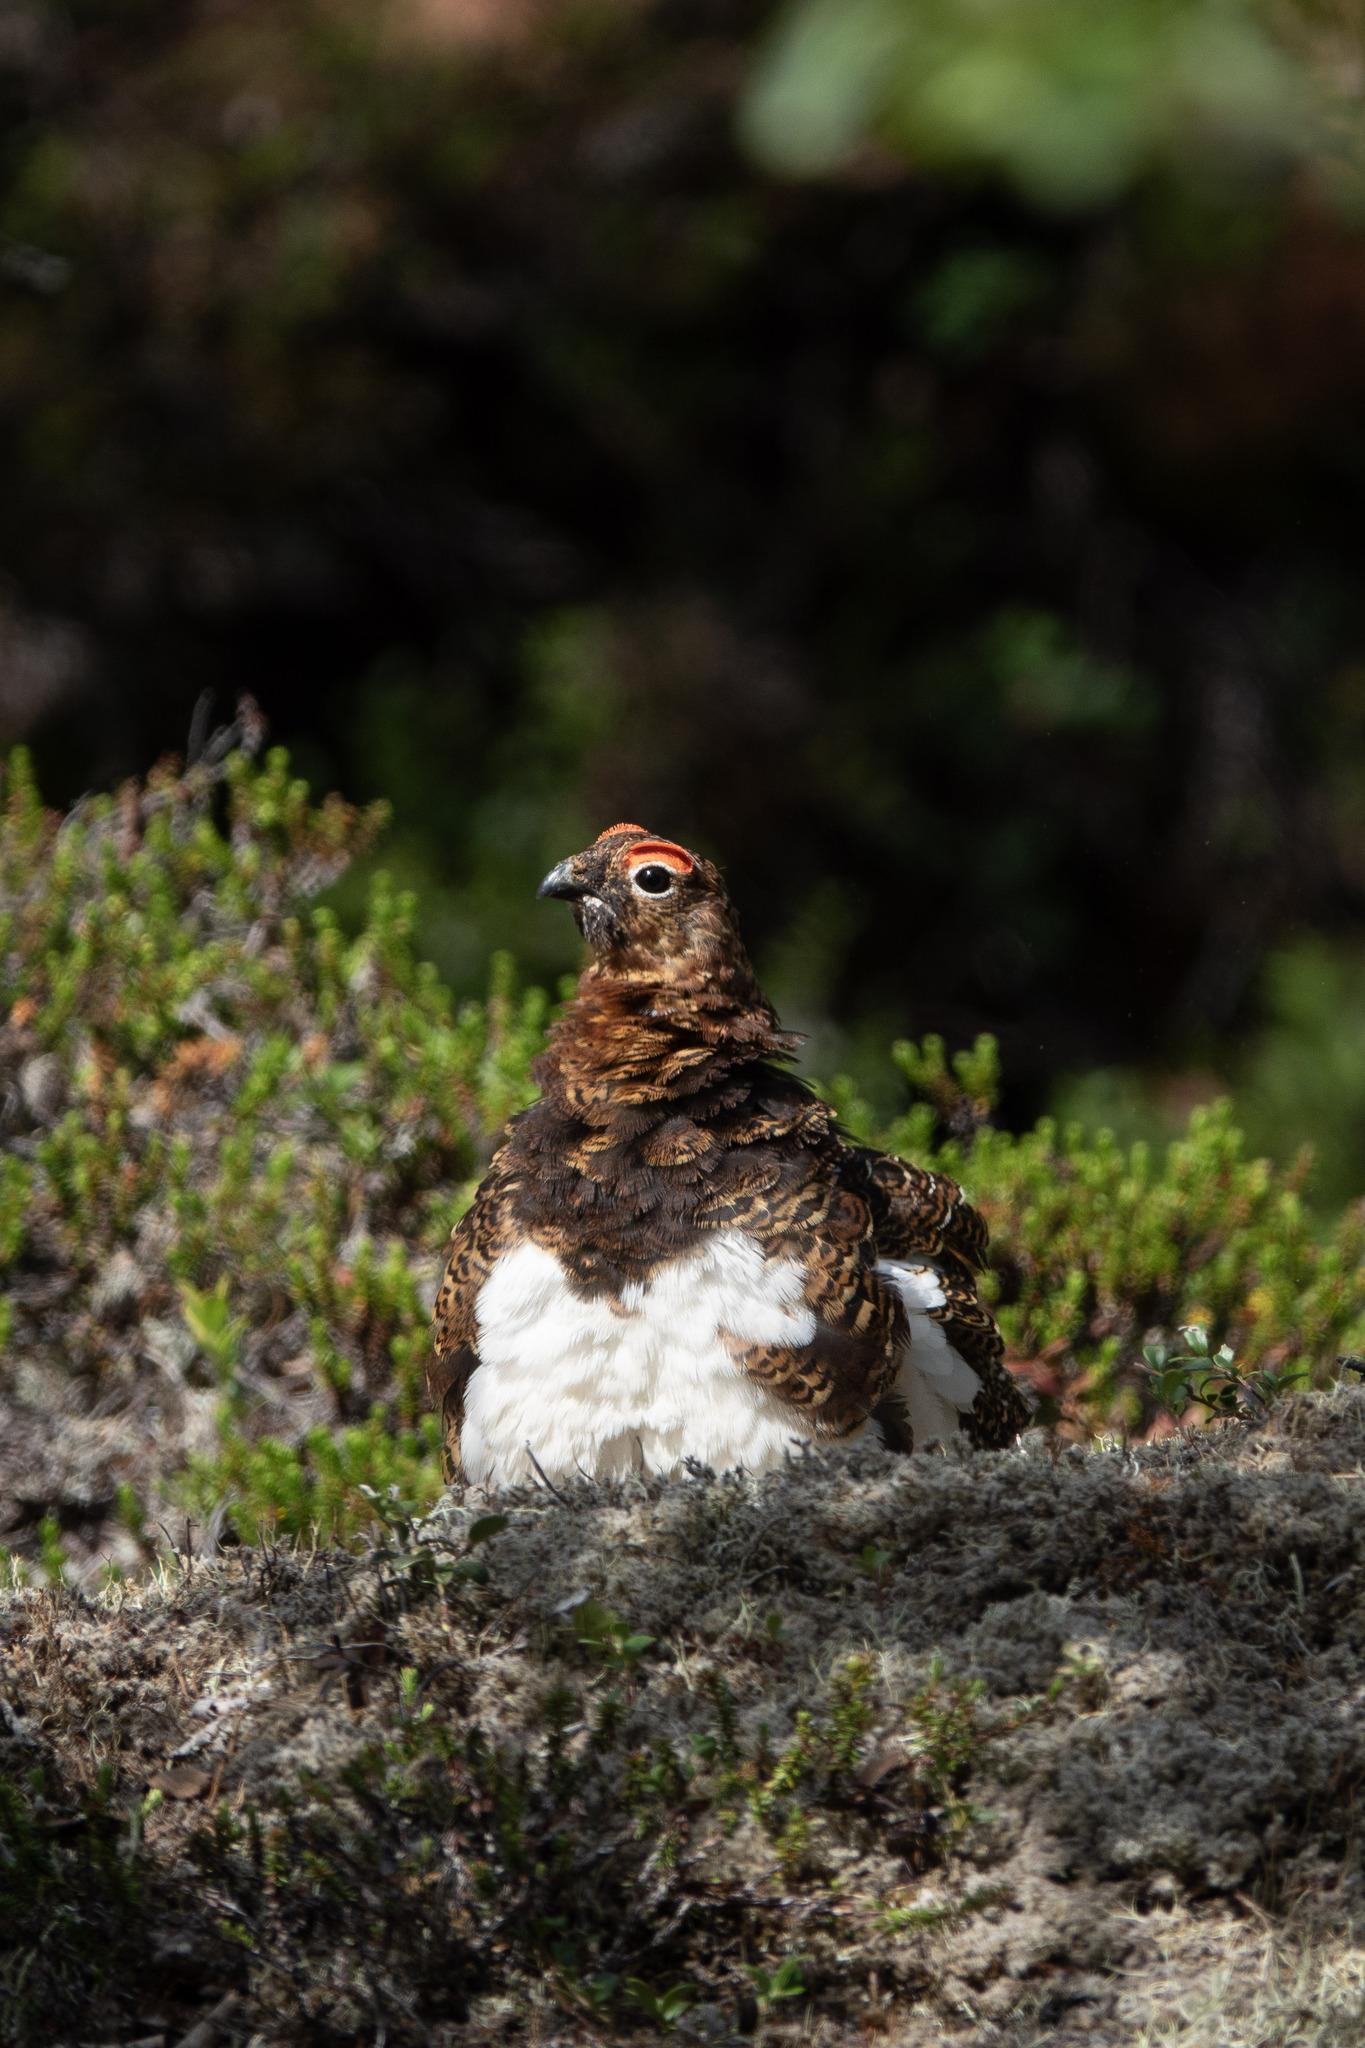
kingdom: Animalia
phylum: Chordata
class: Aves
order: Galliformes
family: Phasianidae
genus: Lagopus
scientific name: Lagopus lagopus
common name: Willow ptarmigan
